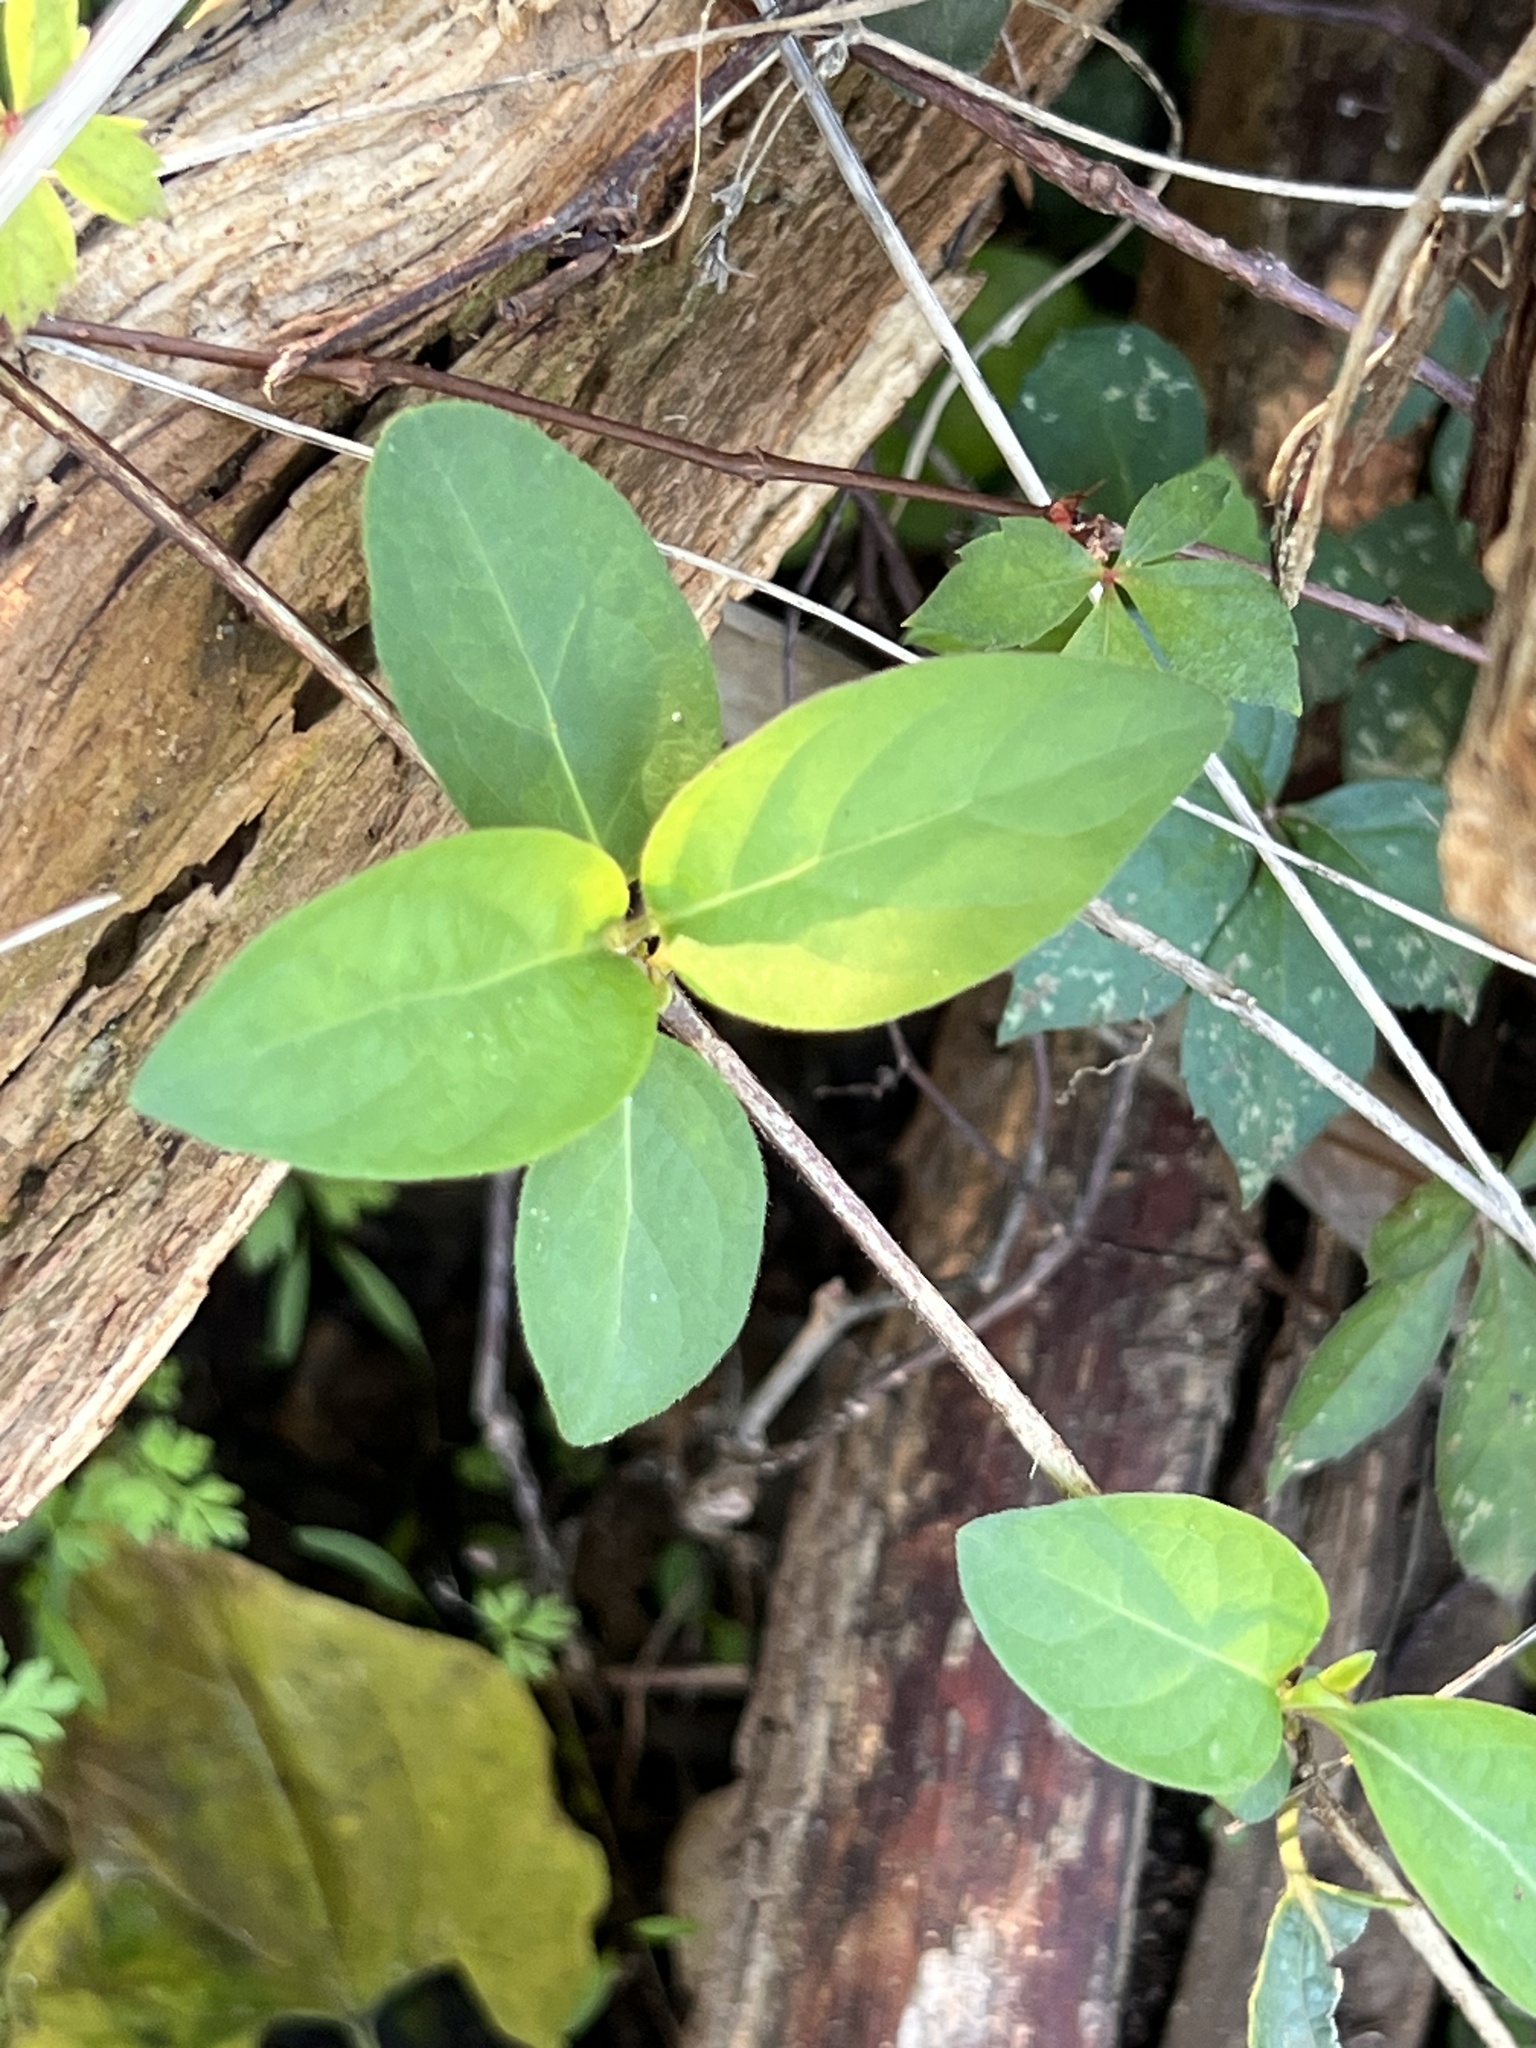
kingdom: Plantae
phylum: Tracheophyta
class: Magnoliopsida
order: Dipsacales
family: Caprifoliaceae
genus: Lonicera
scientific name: Lonicera japonica
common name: Japanese honeysuckle
